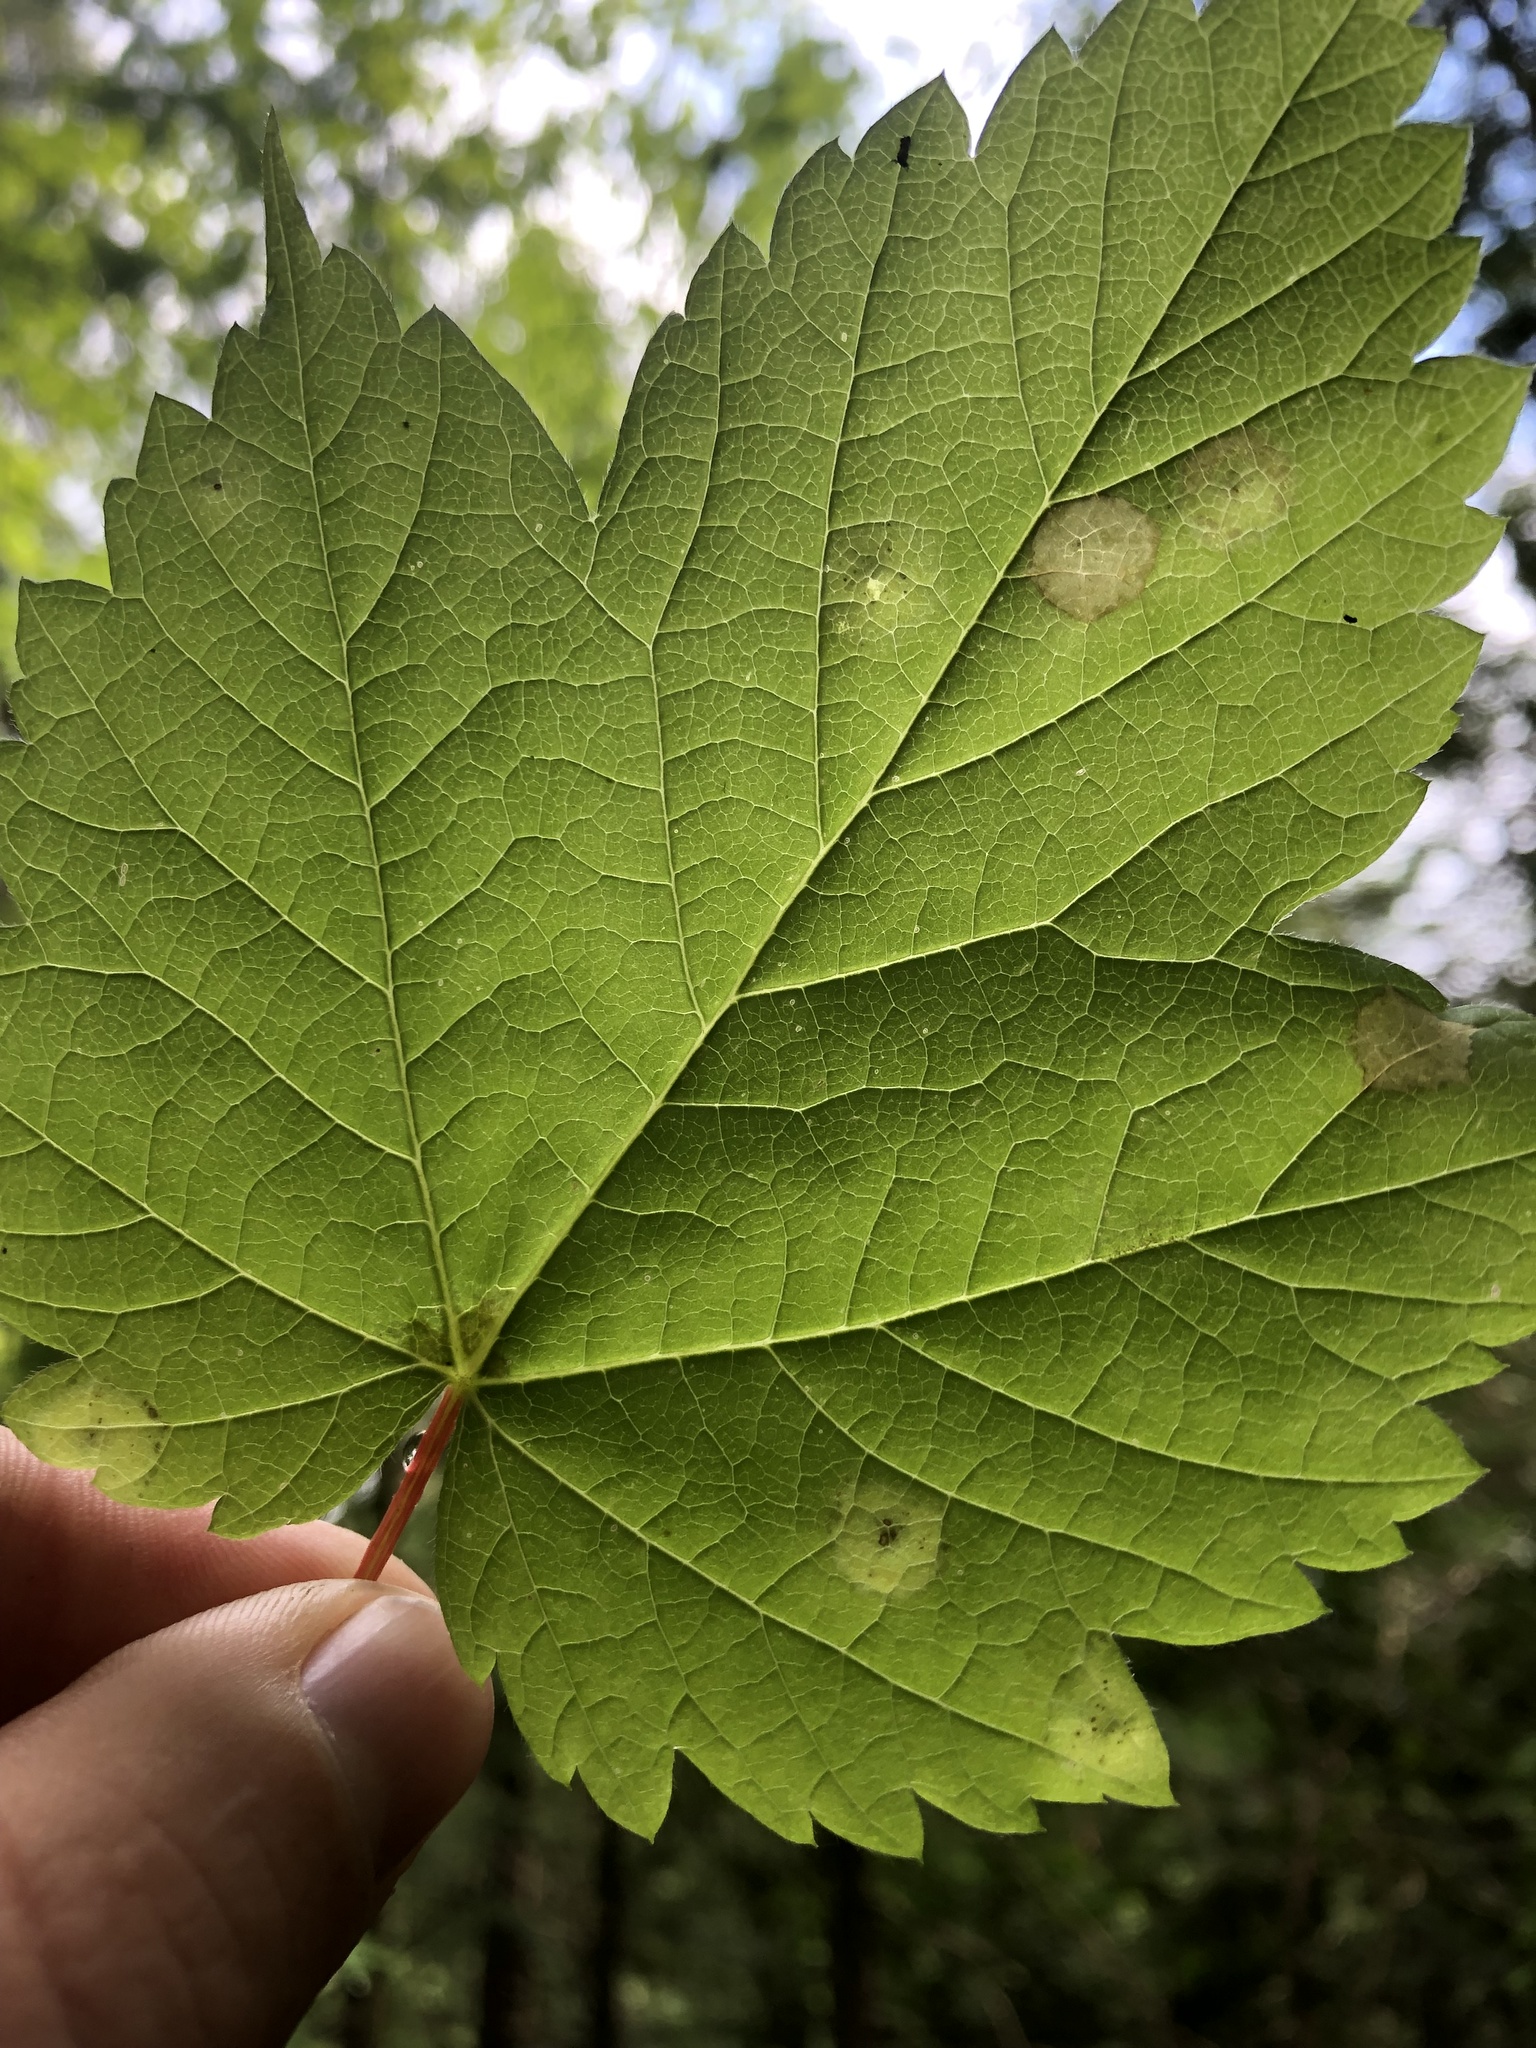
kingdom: Animalia
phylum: Arthropoda
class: Insecta
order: Diptera
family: Cecidomyiidae
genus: Acericecis
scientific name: Acericecis ocellaris
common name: Ocellate gall midge
